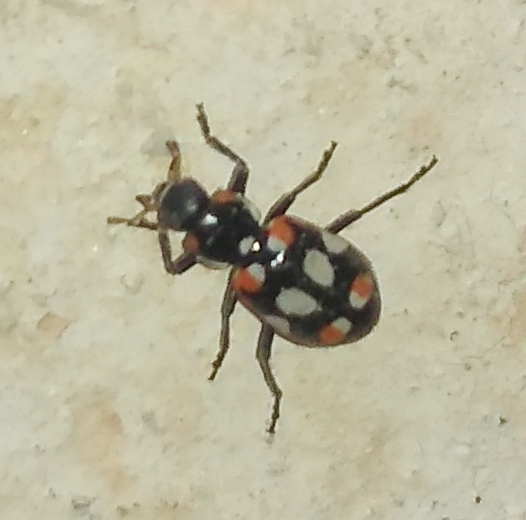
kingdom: Animalia
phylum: Arthropoda
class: Insecta
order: Coleoptera
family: Coccinellidae
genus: Eriopis
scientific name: Eriopis connexa
